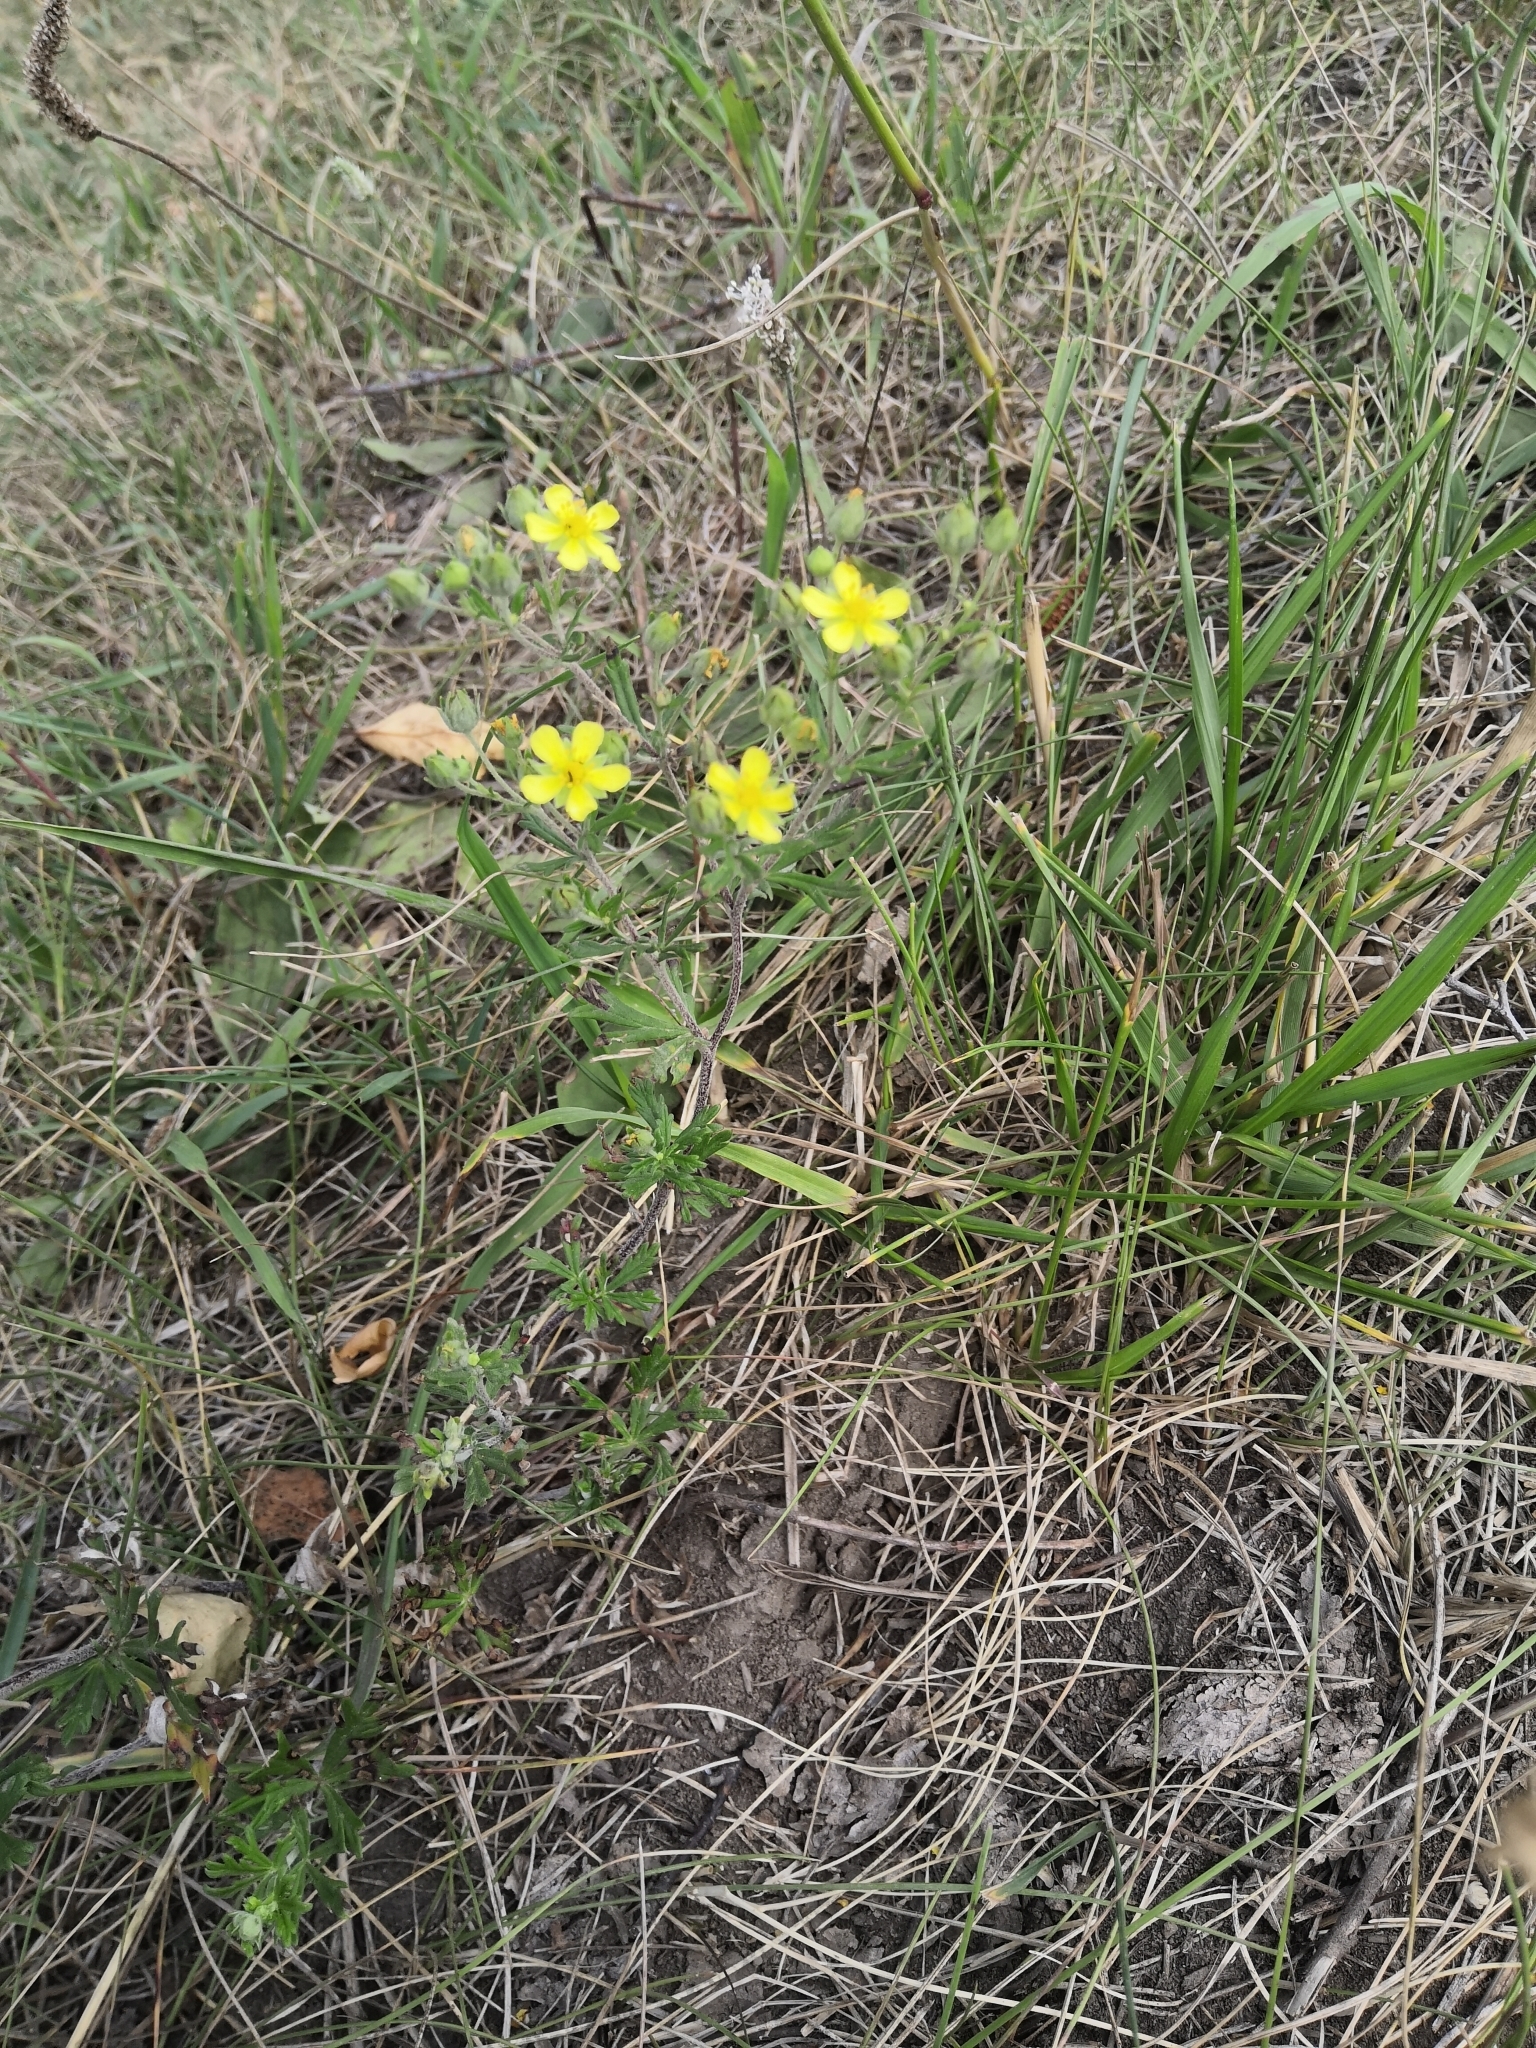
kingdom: Plantae
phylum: Tracheophyta
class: Magnoliopsida
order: Rosales
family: Rosaceae
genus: Potentilla
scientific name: Potentilla argentea
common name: Hoary cinquefoil
